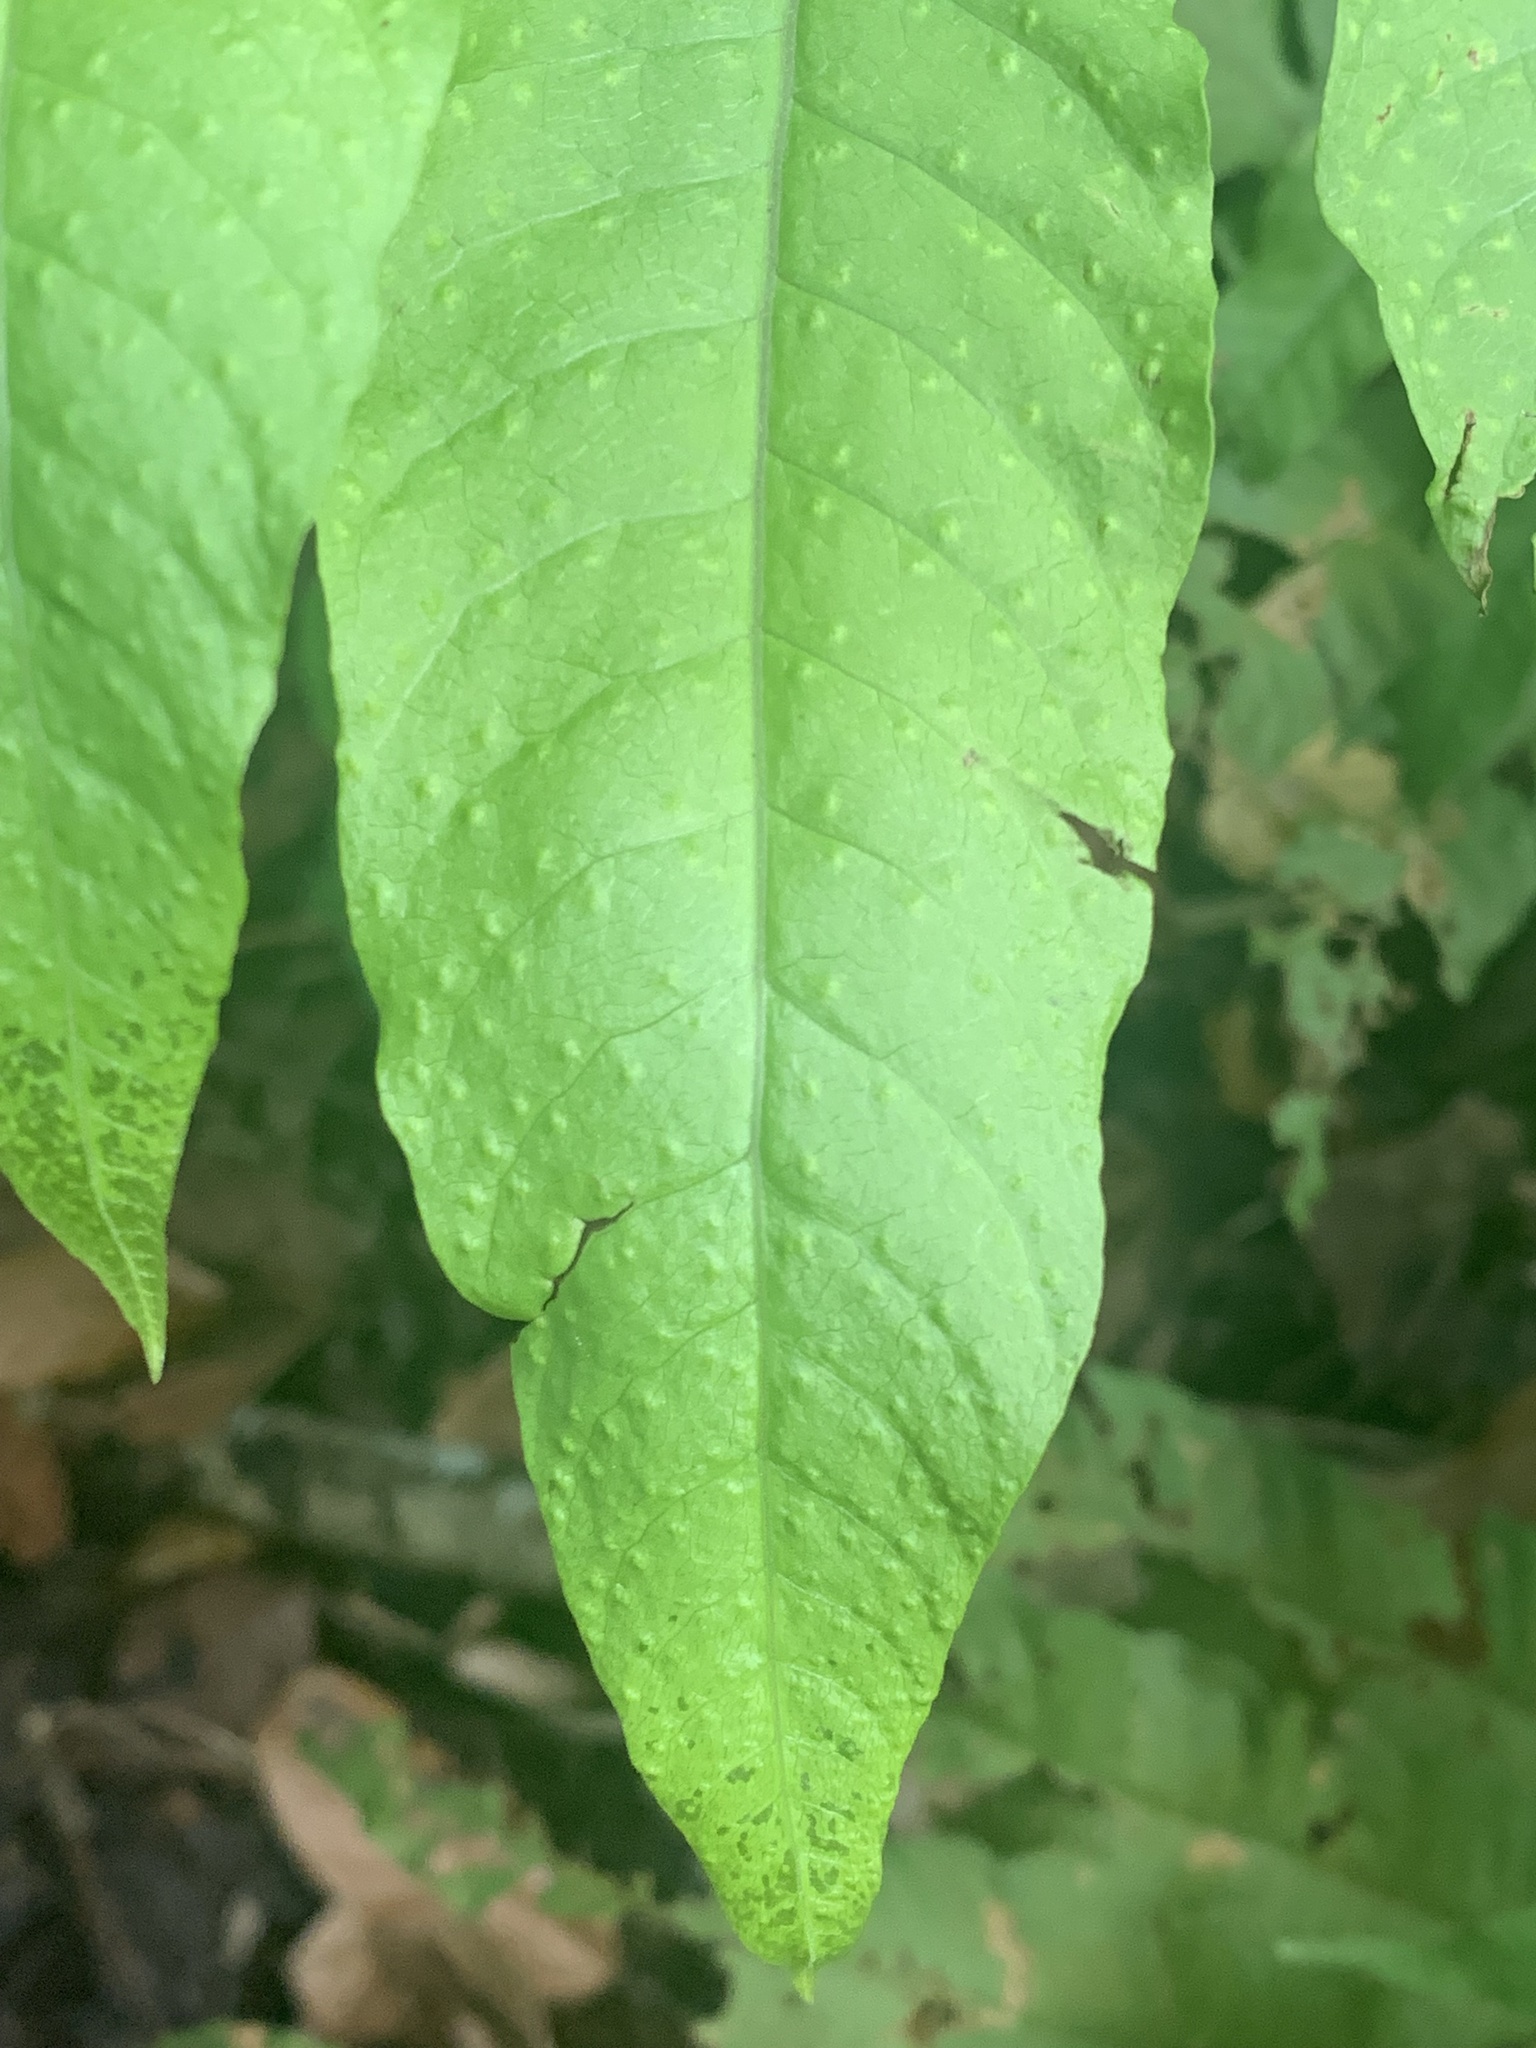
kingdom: Plantae
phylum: Tracheophyta
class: Polypodiopsida
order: Polypodiales
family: Tectariaceae
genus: Tectaria
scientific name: Tectaria incisa
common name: Incised halberd fern
